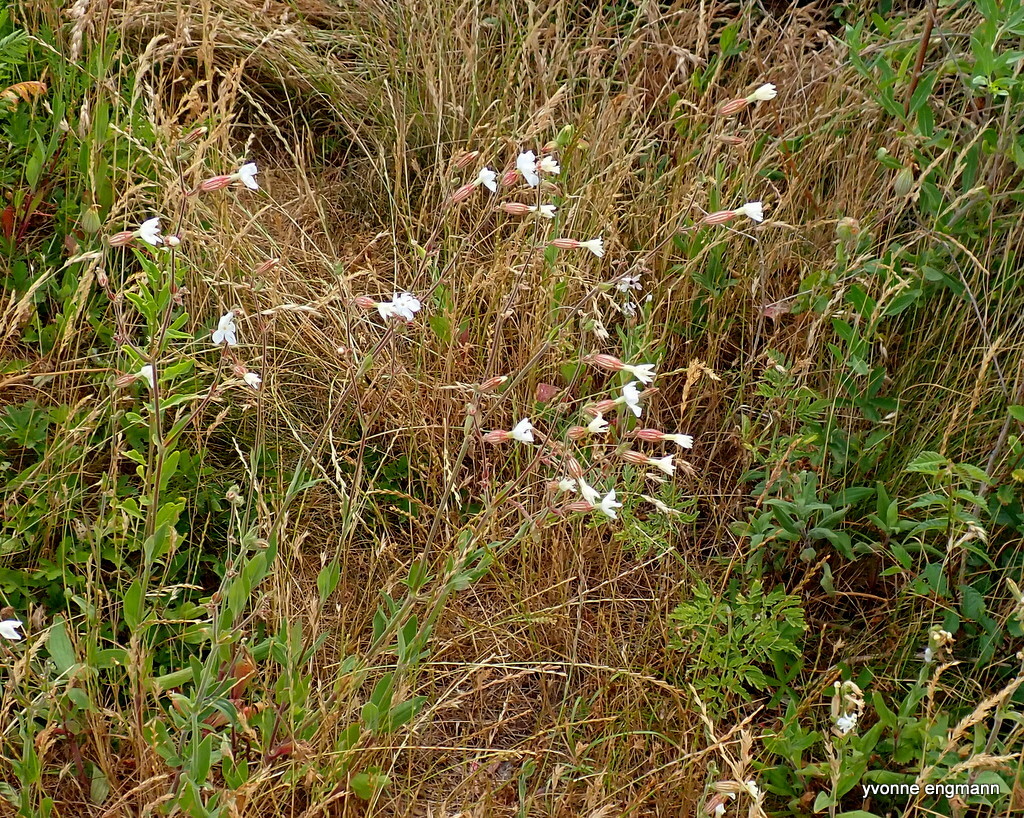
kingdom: Plantae
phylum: Tracheophyta
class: Magnoliopsida
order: Caryophyllales
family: Caryophyllaceae
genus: Silene
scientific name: Silene latifolia
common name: White campion
